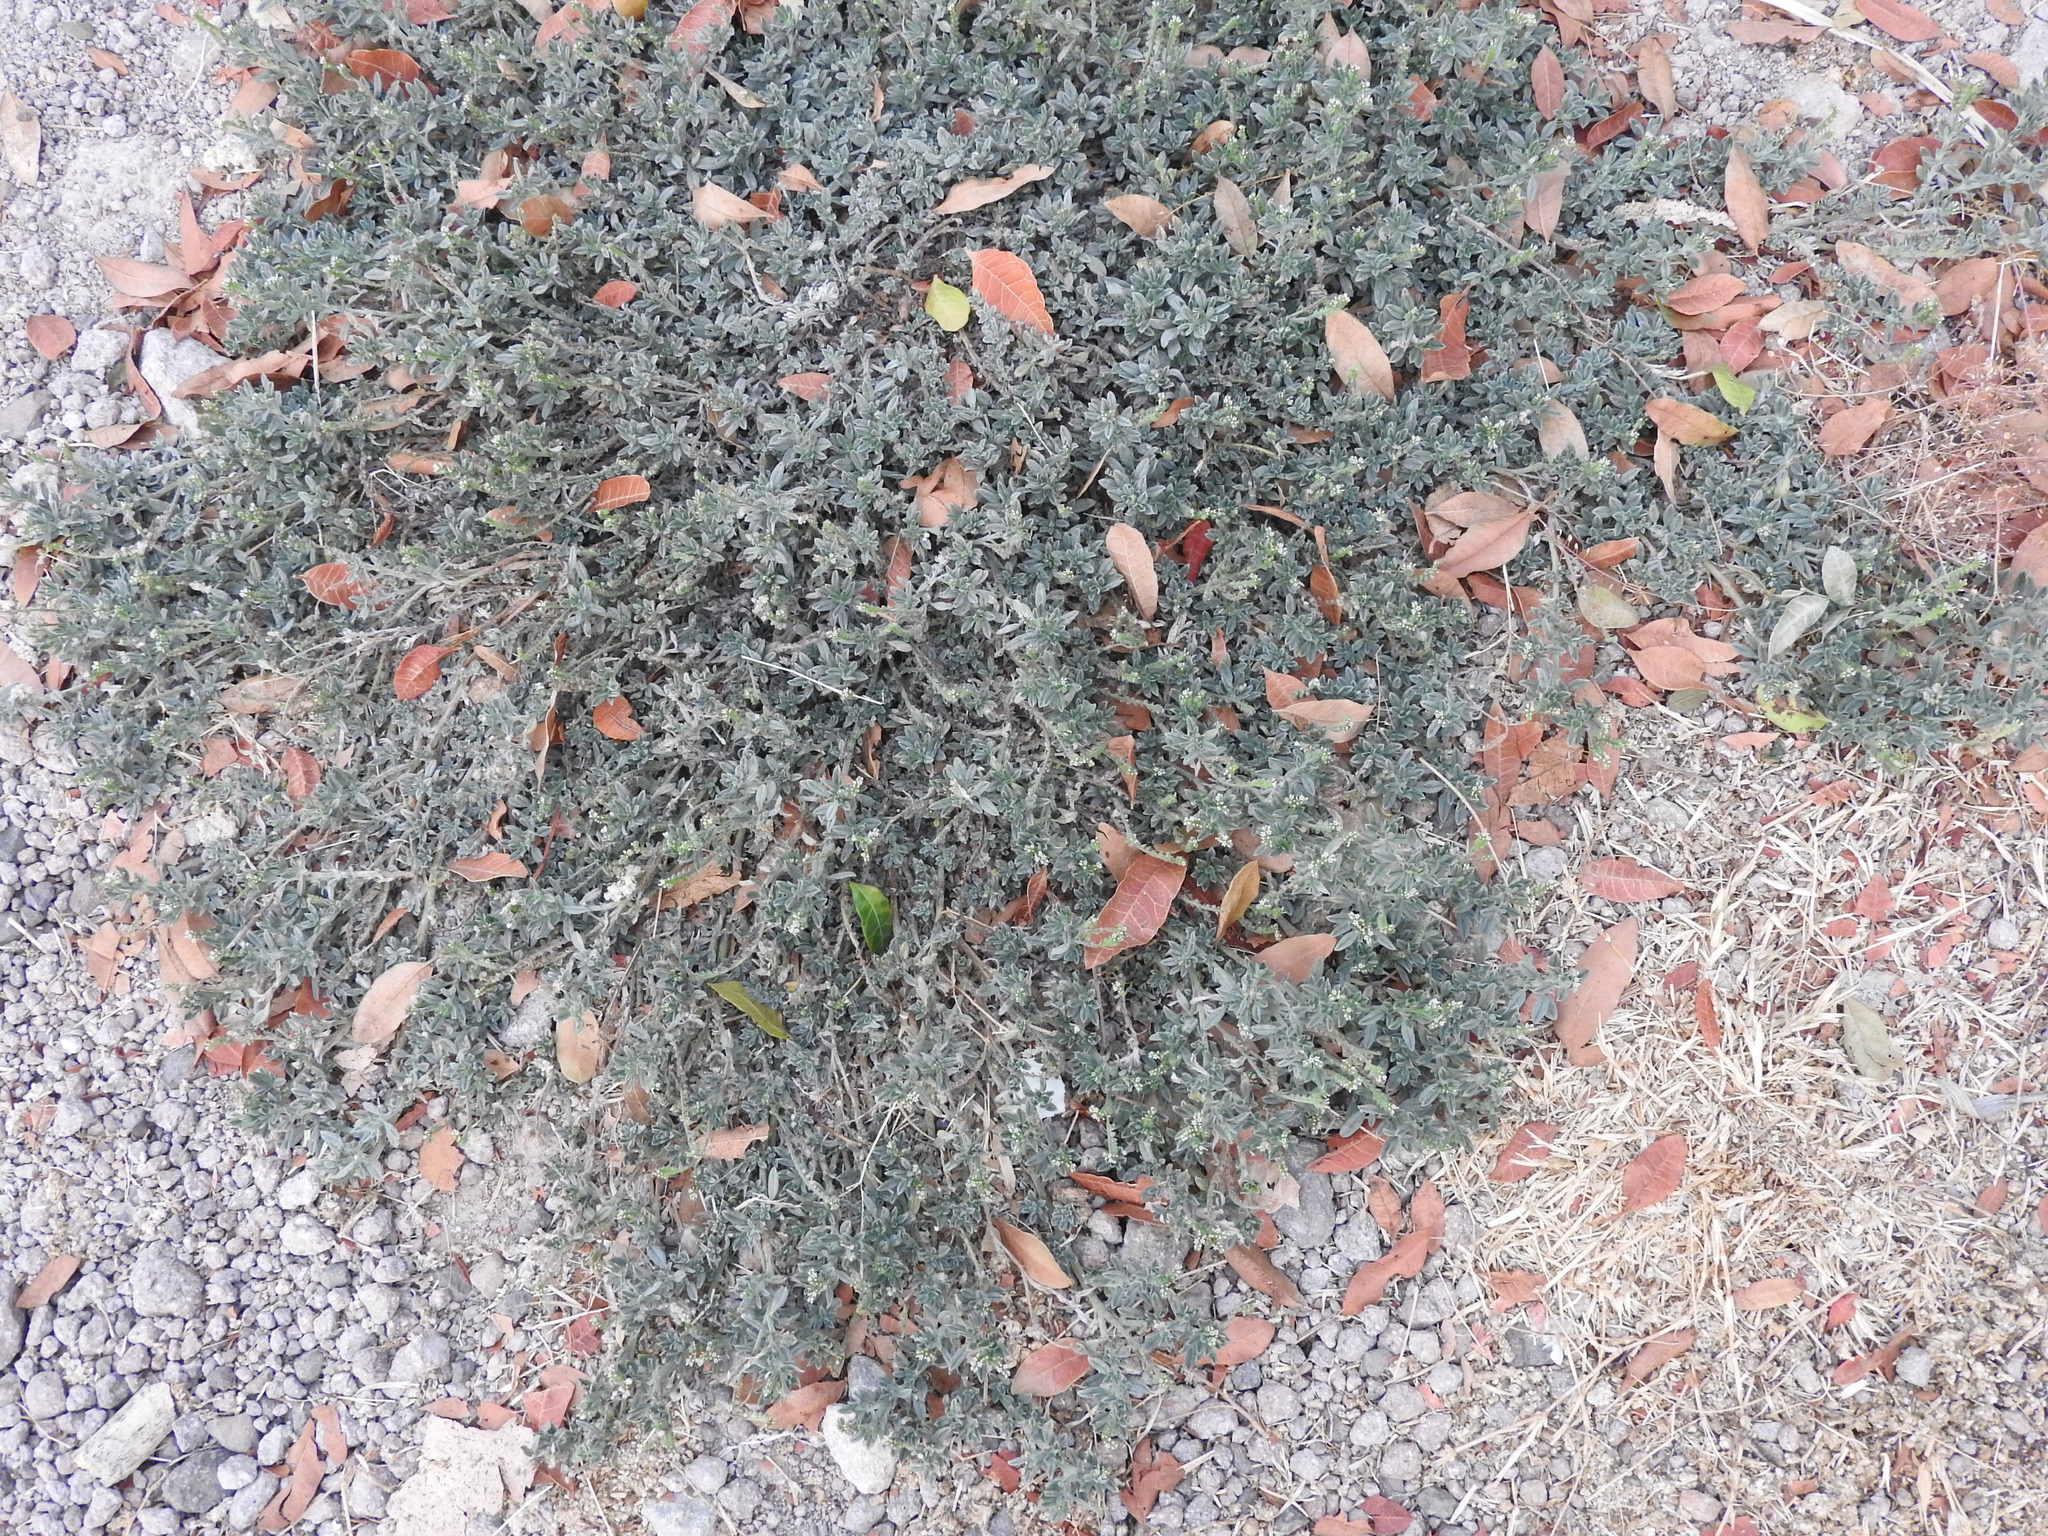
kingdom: Plantae
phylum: Tracheophyta
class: Magnoliopsida
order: Boraginales
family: Heliotropiaceae
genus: Euploca
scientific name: Euploca procumbens
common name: Fourspike heliotrope
